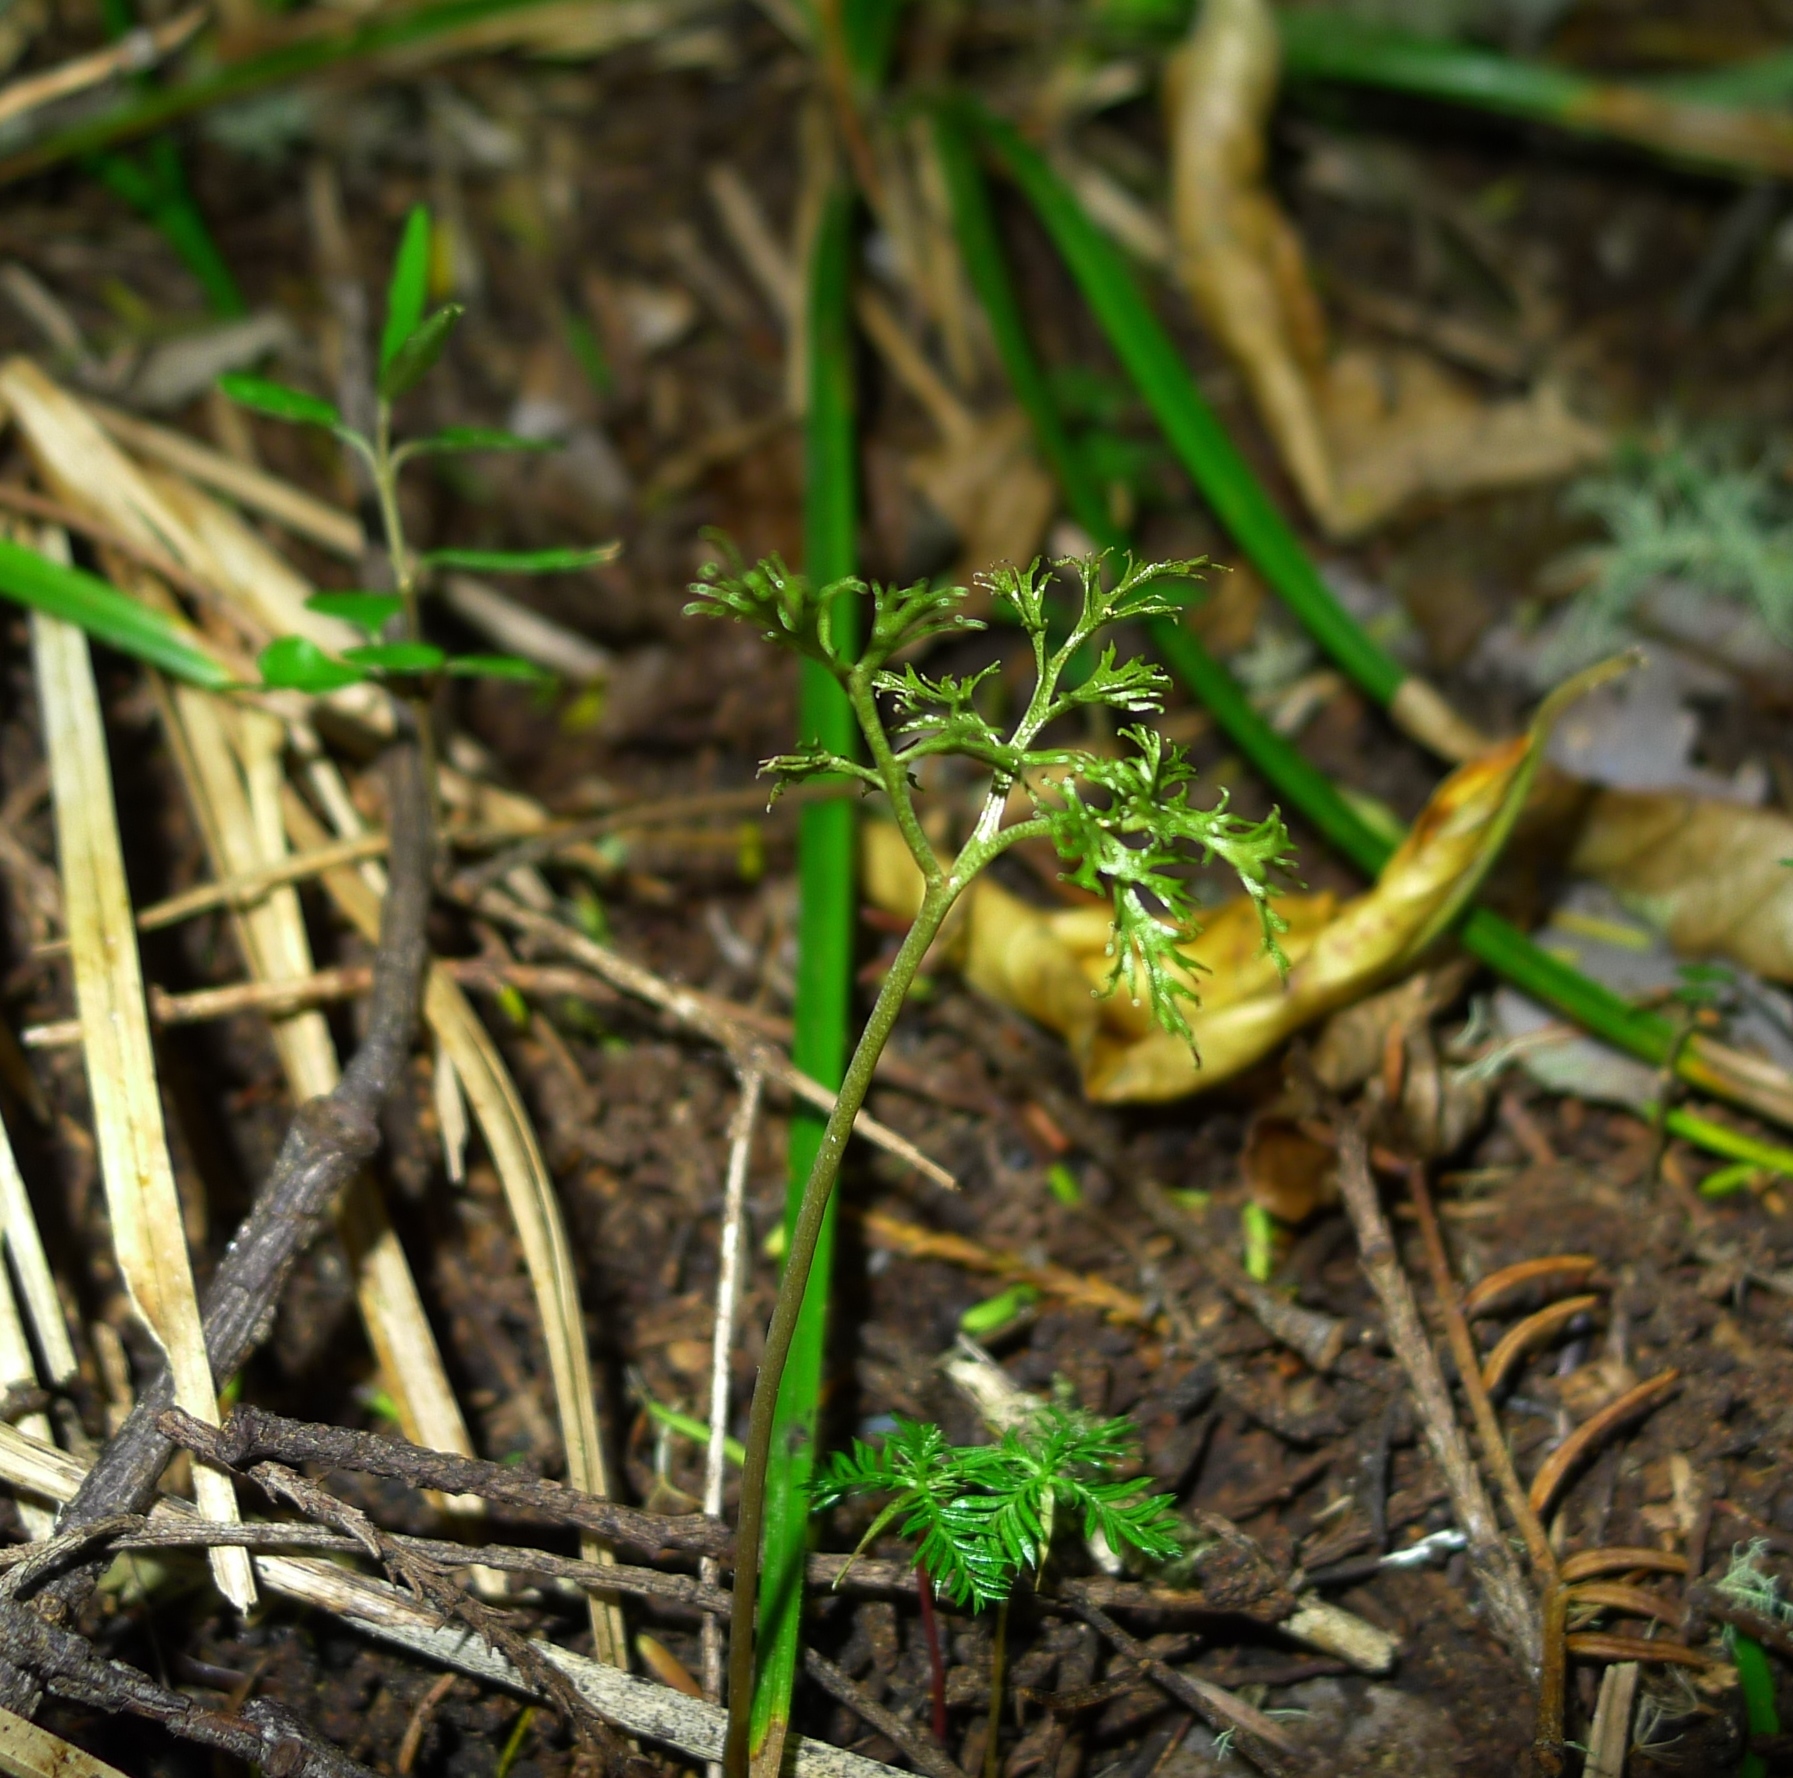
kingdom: Plantae
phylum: Tracheophyta
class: Polypodiopsida
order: Ophioglossales
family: Ophioglossaceae
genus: Sceptridium
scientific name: Sceptridium biforme
